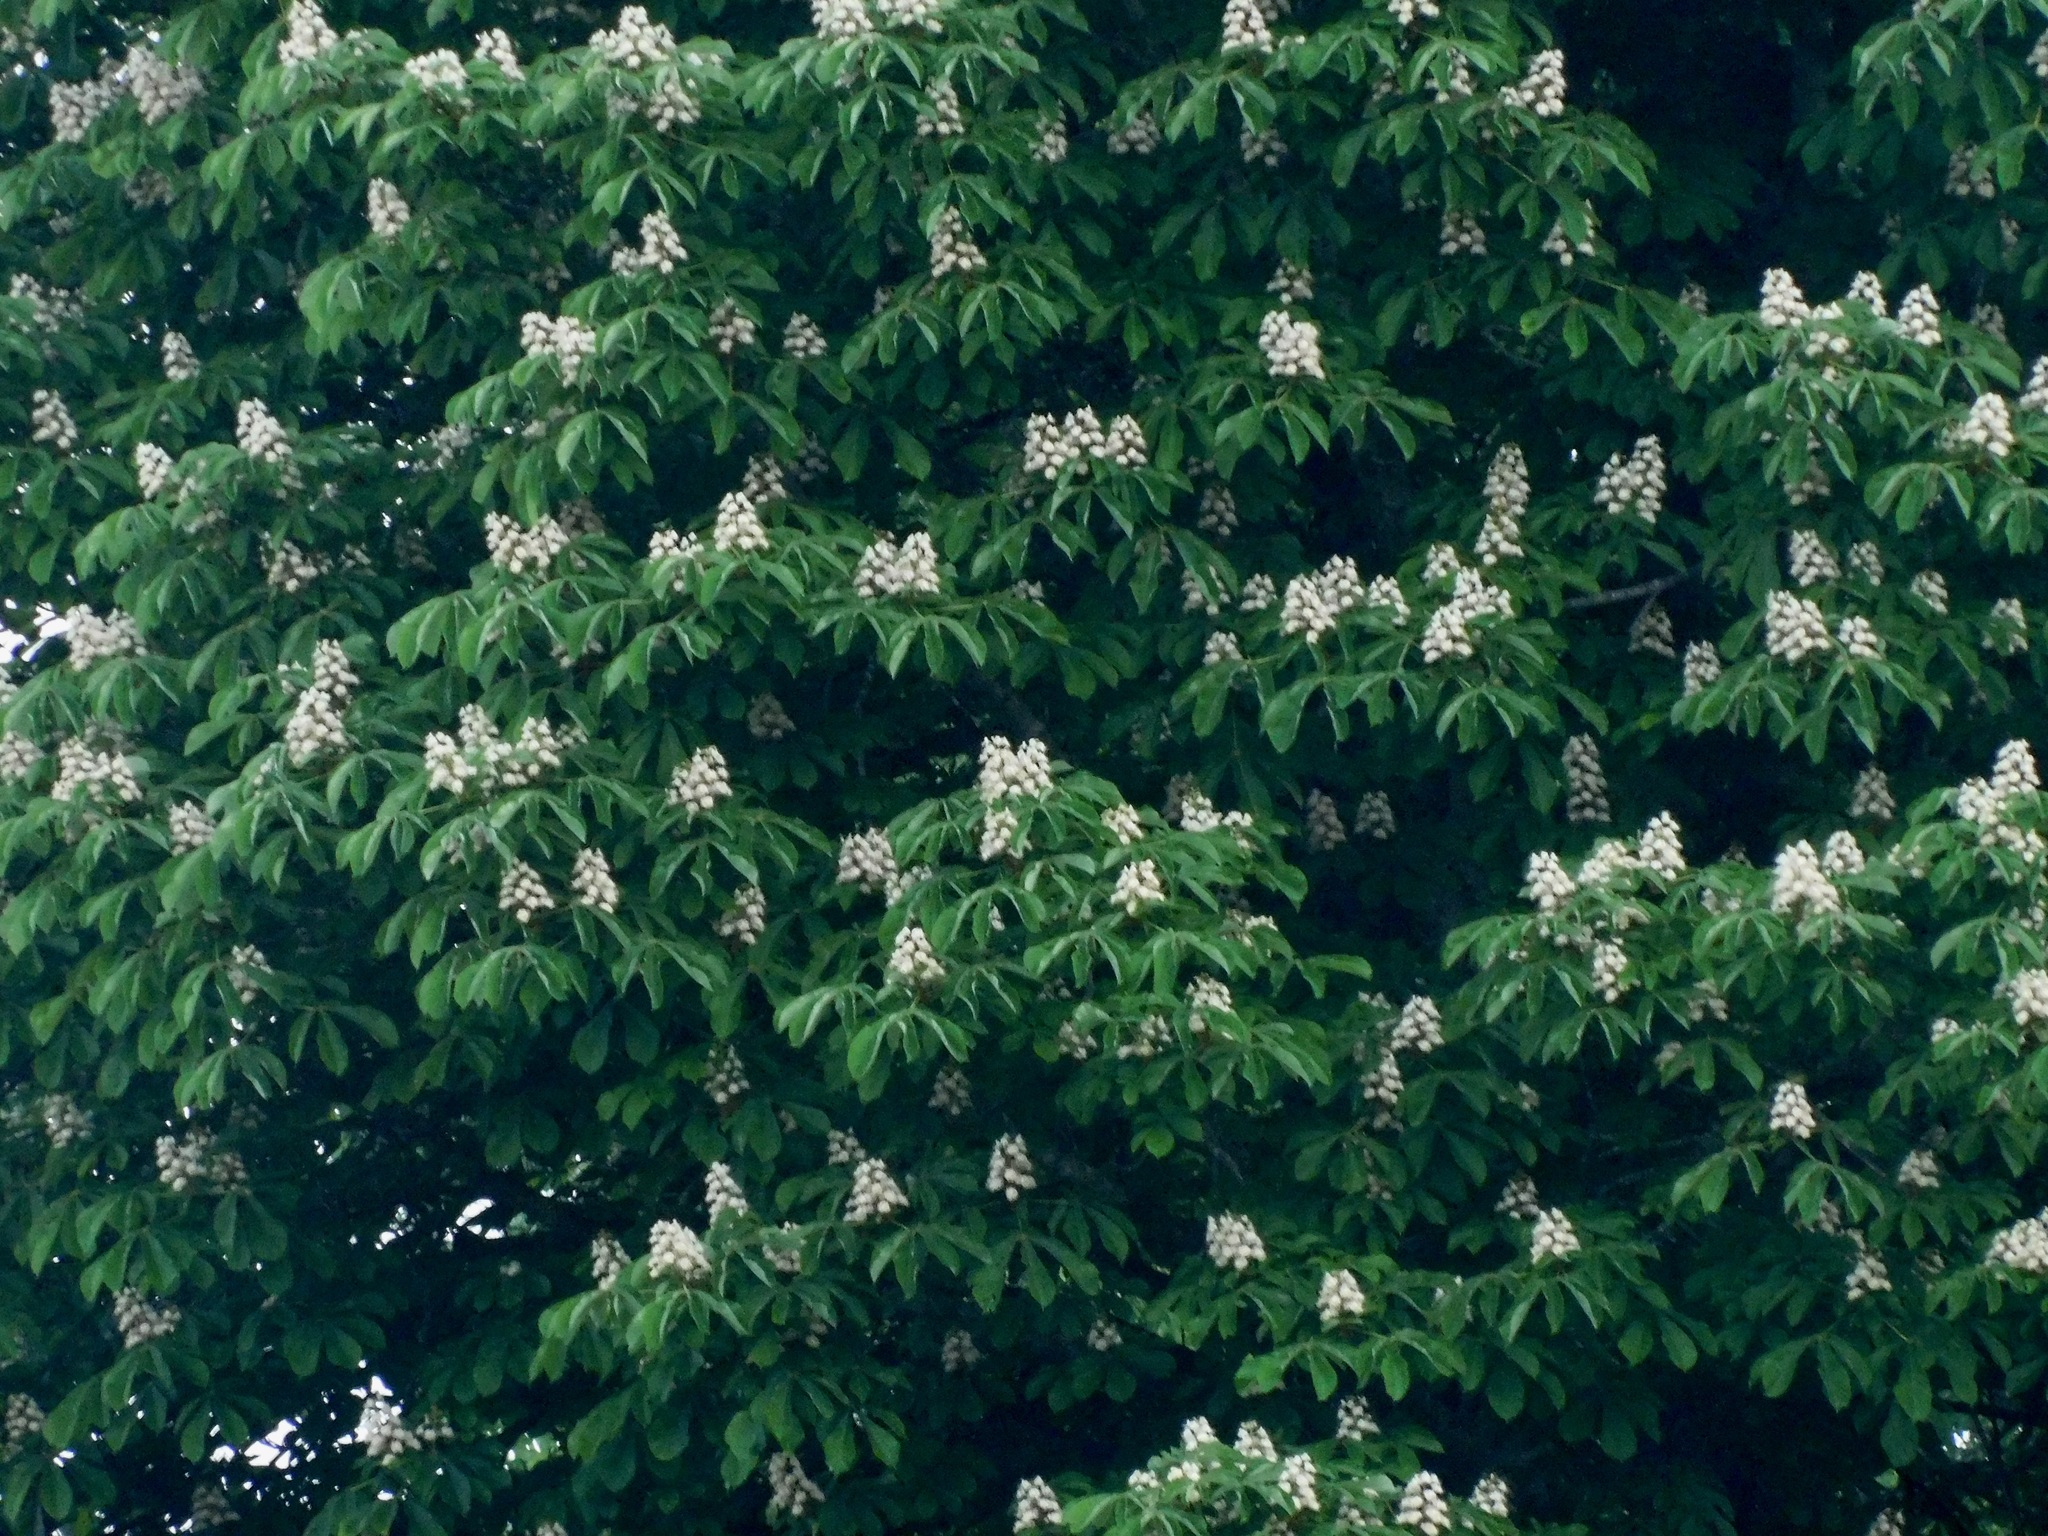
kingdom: Plantae
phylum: Tracheophyta
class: Magnoliopsida
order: Sapindales
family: Sapindaceae
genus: Aesculus
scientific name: Aesculus flava
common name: Yellow buckeye
